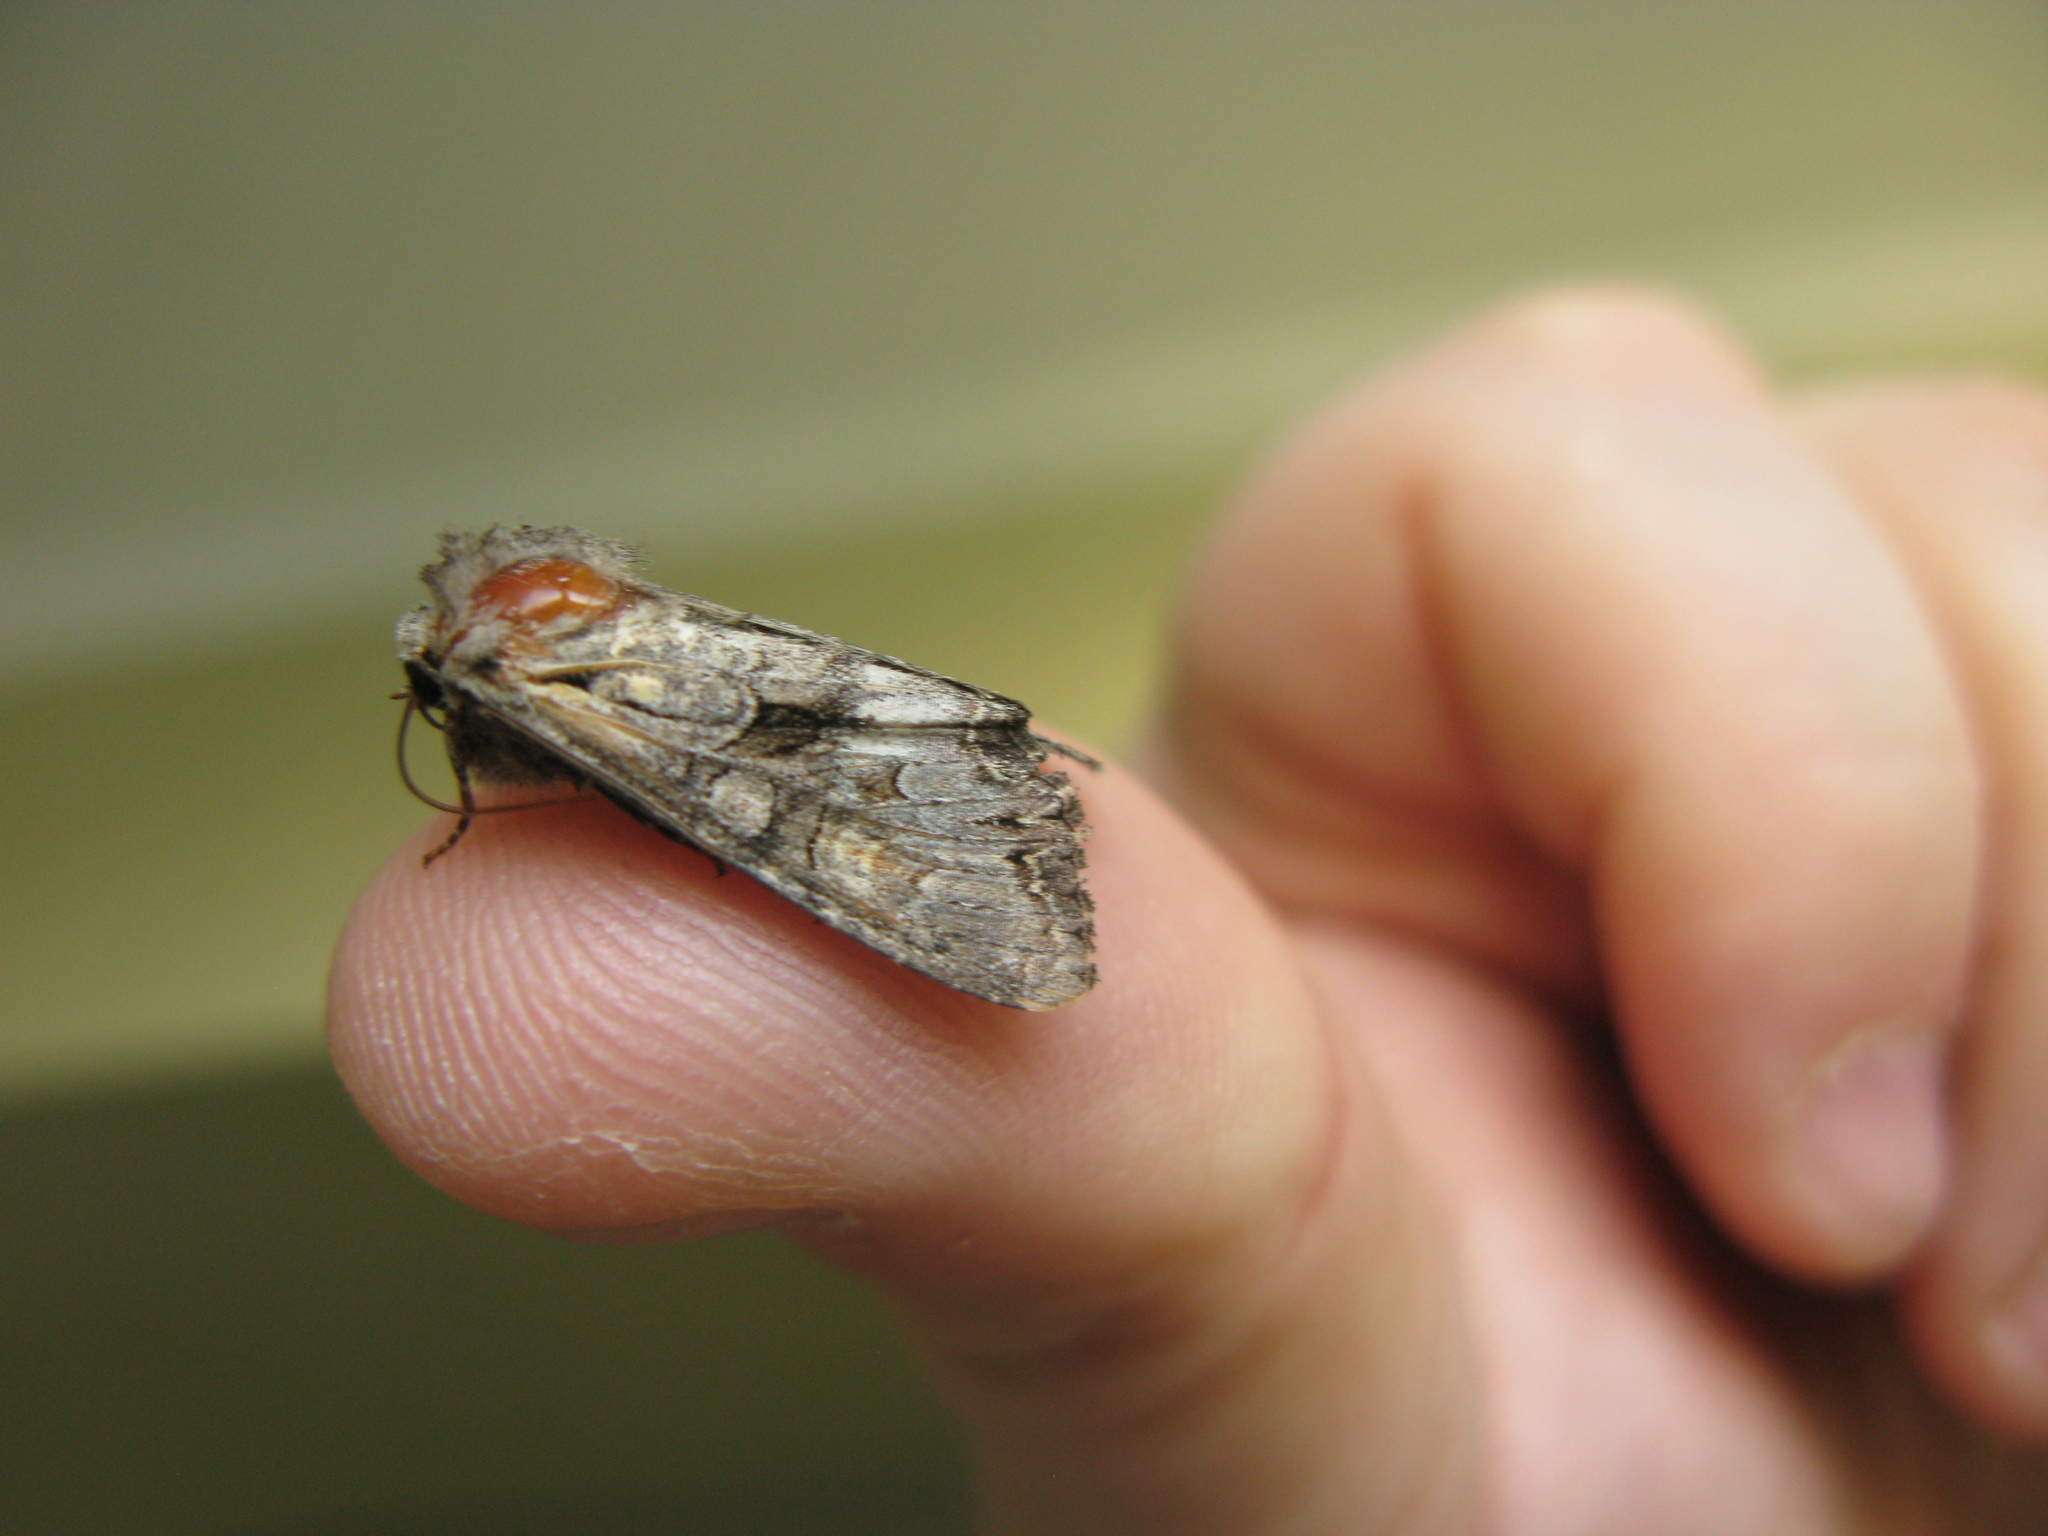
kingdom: Animalia
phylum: Arthropoda
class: Insecta
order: Lepidoptera
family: Noctuidae
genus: Lacanobia
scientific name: Lacanobia w-latinum
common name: Light brocade
